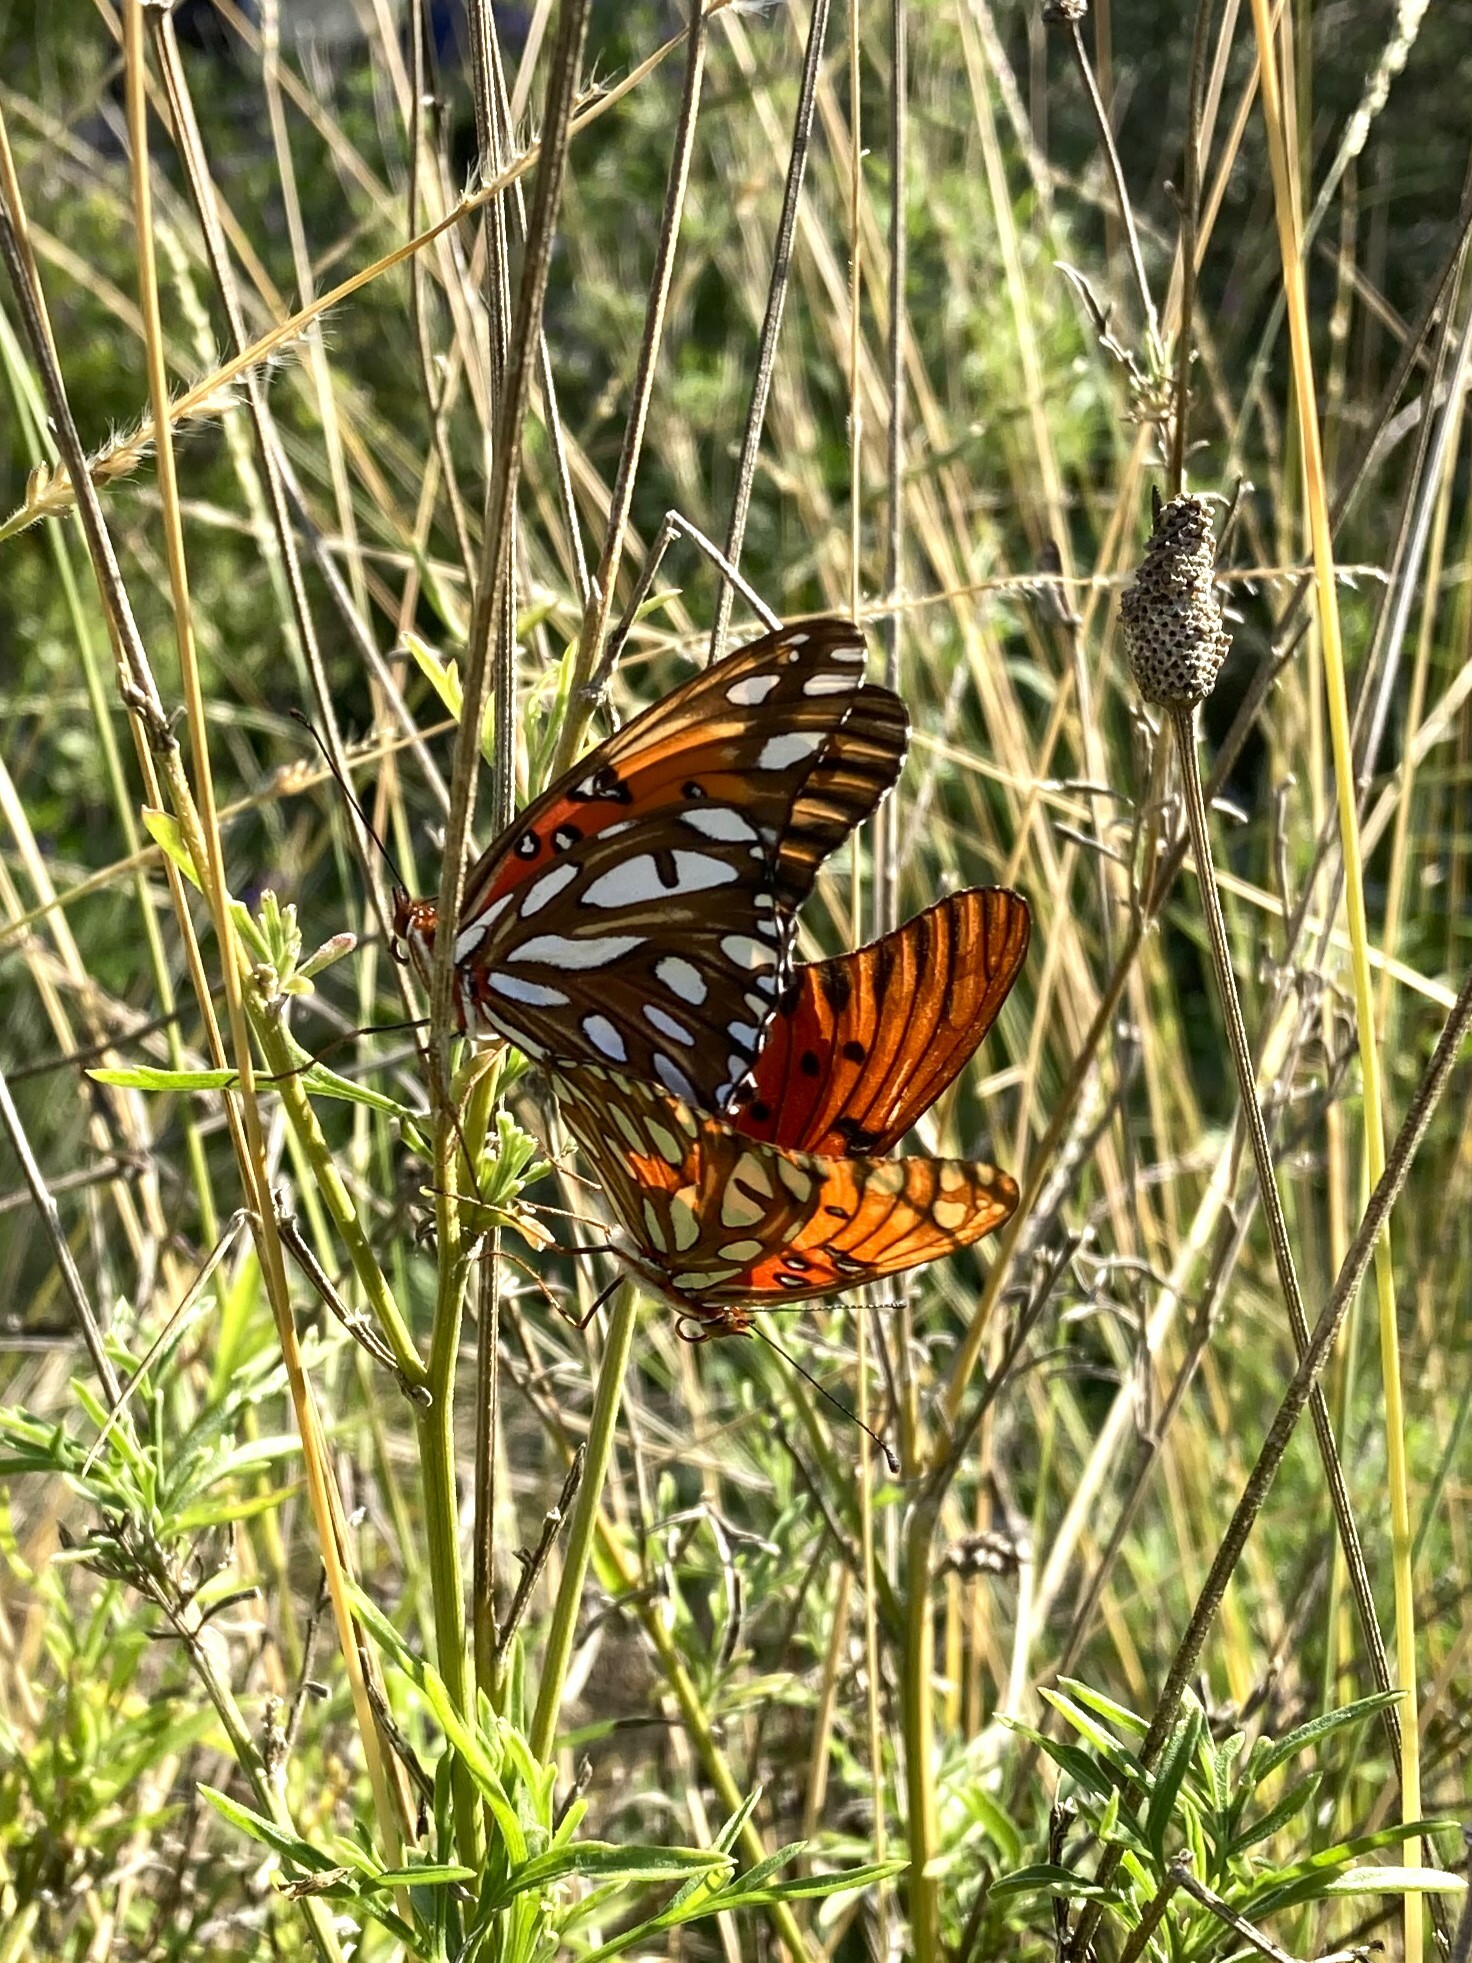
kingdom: Animalia
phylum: Arthropoda
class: Insecta
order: Lepidoptera
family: Nymphalidae
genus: Dione
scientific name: Dione vanillae
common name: Gulf fritillary
